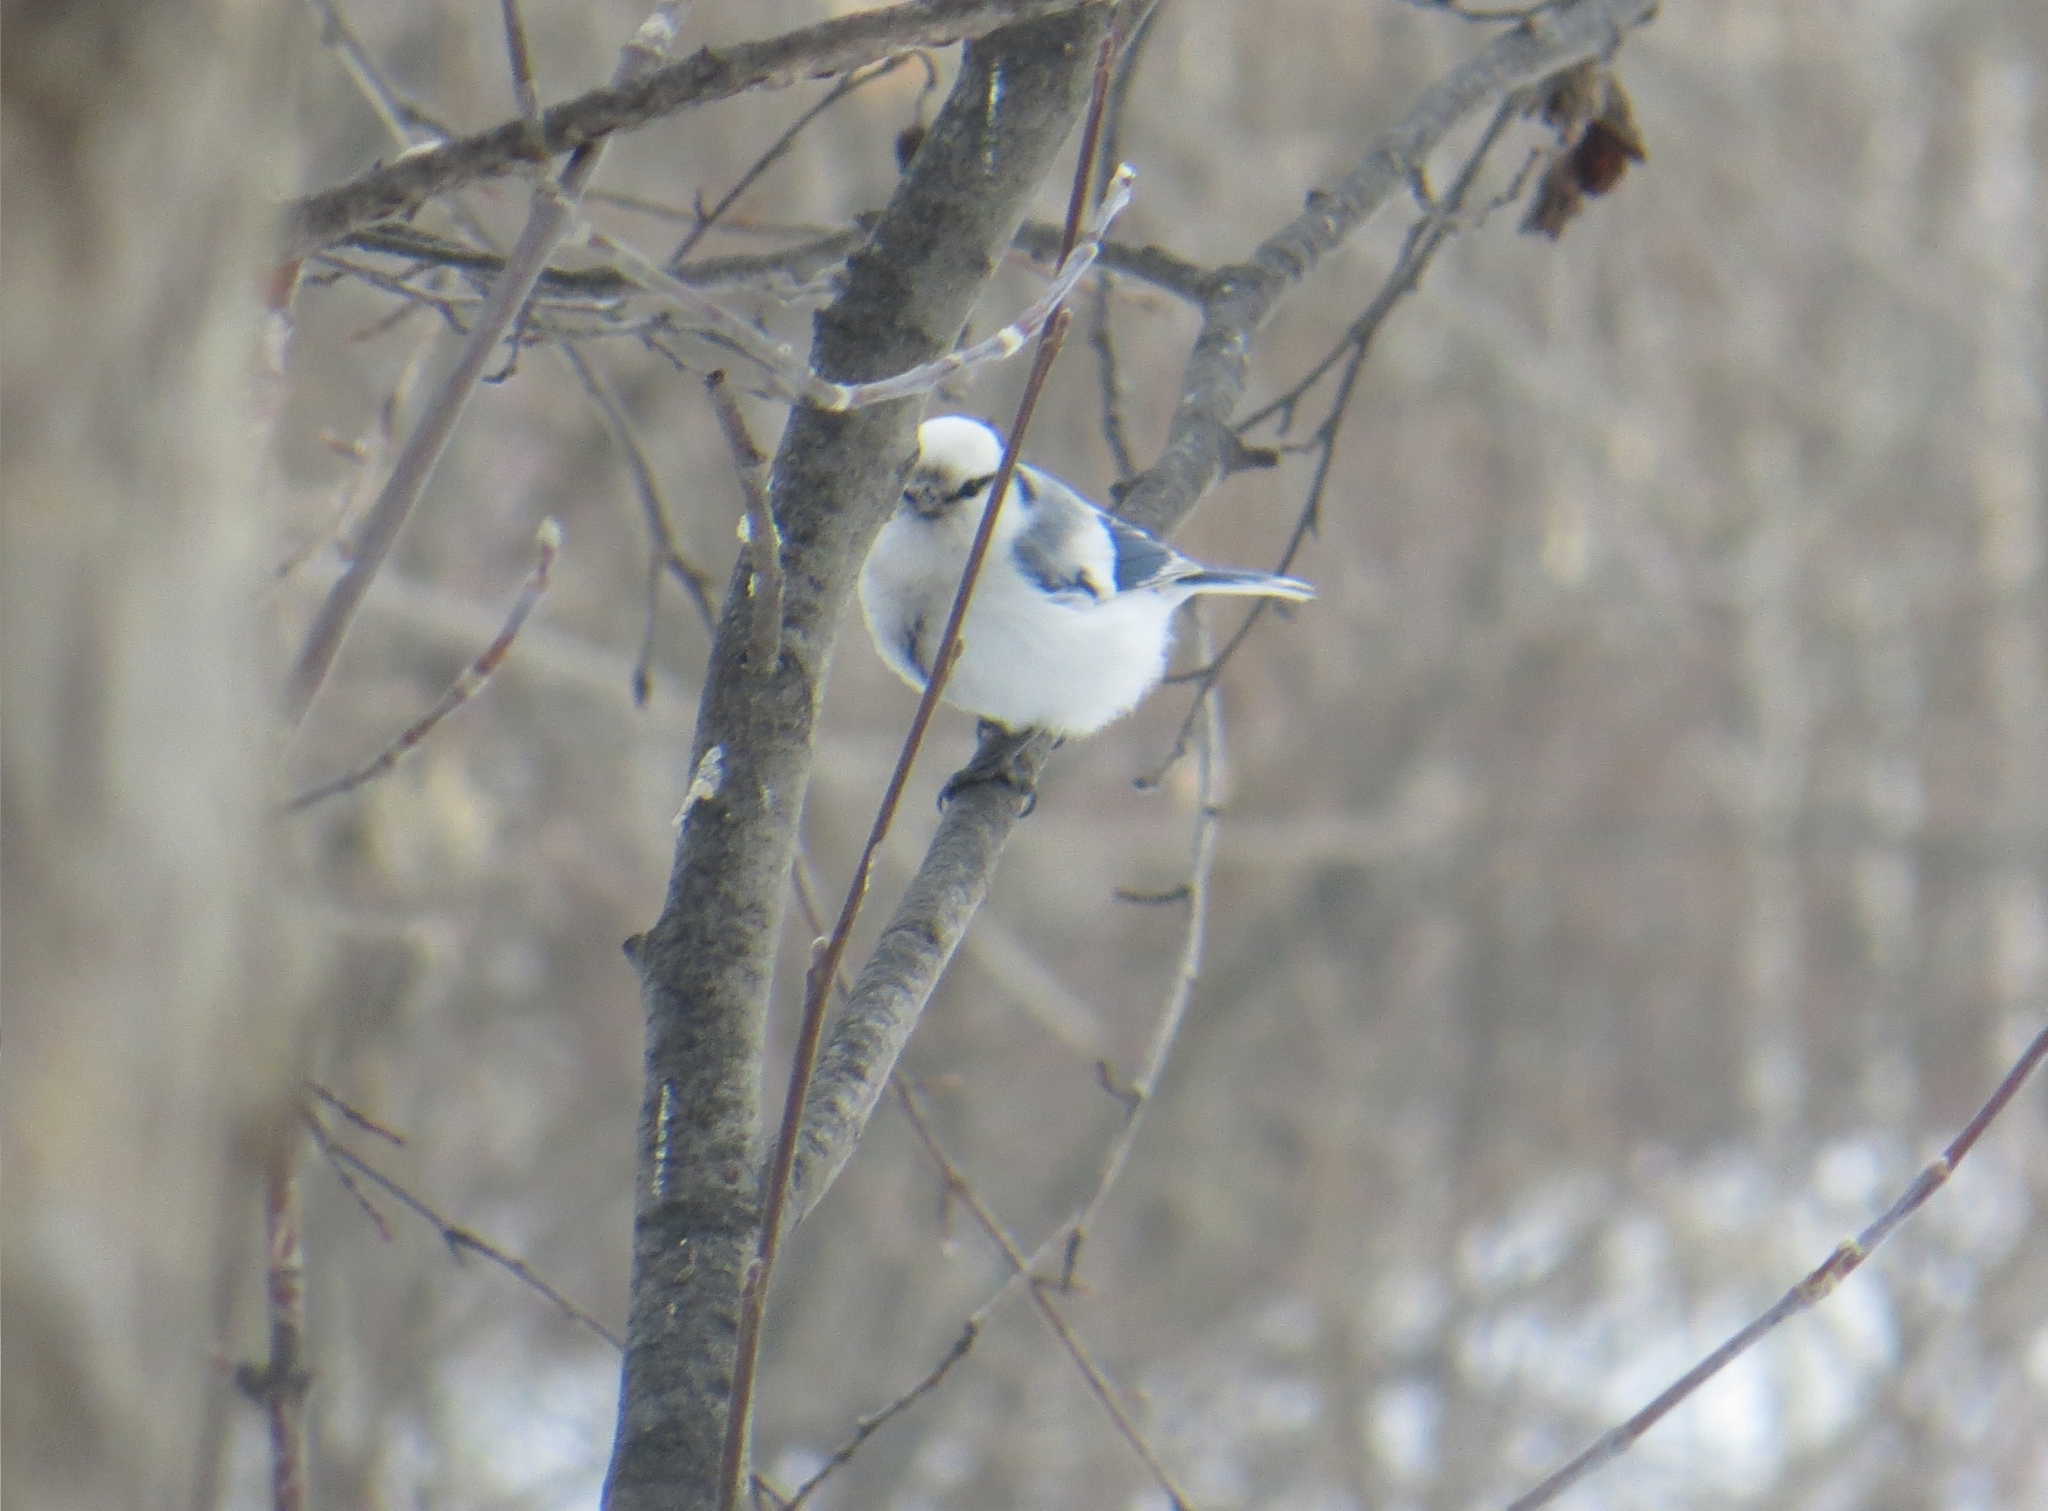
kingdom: Animalia
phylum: Chordata
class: Aves
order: Passeriformes
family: Paridae
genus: Cyanistes
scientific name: Cyanistes cyanus
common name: Azure tit
